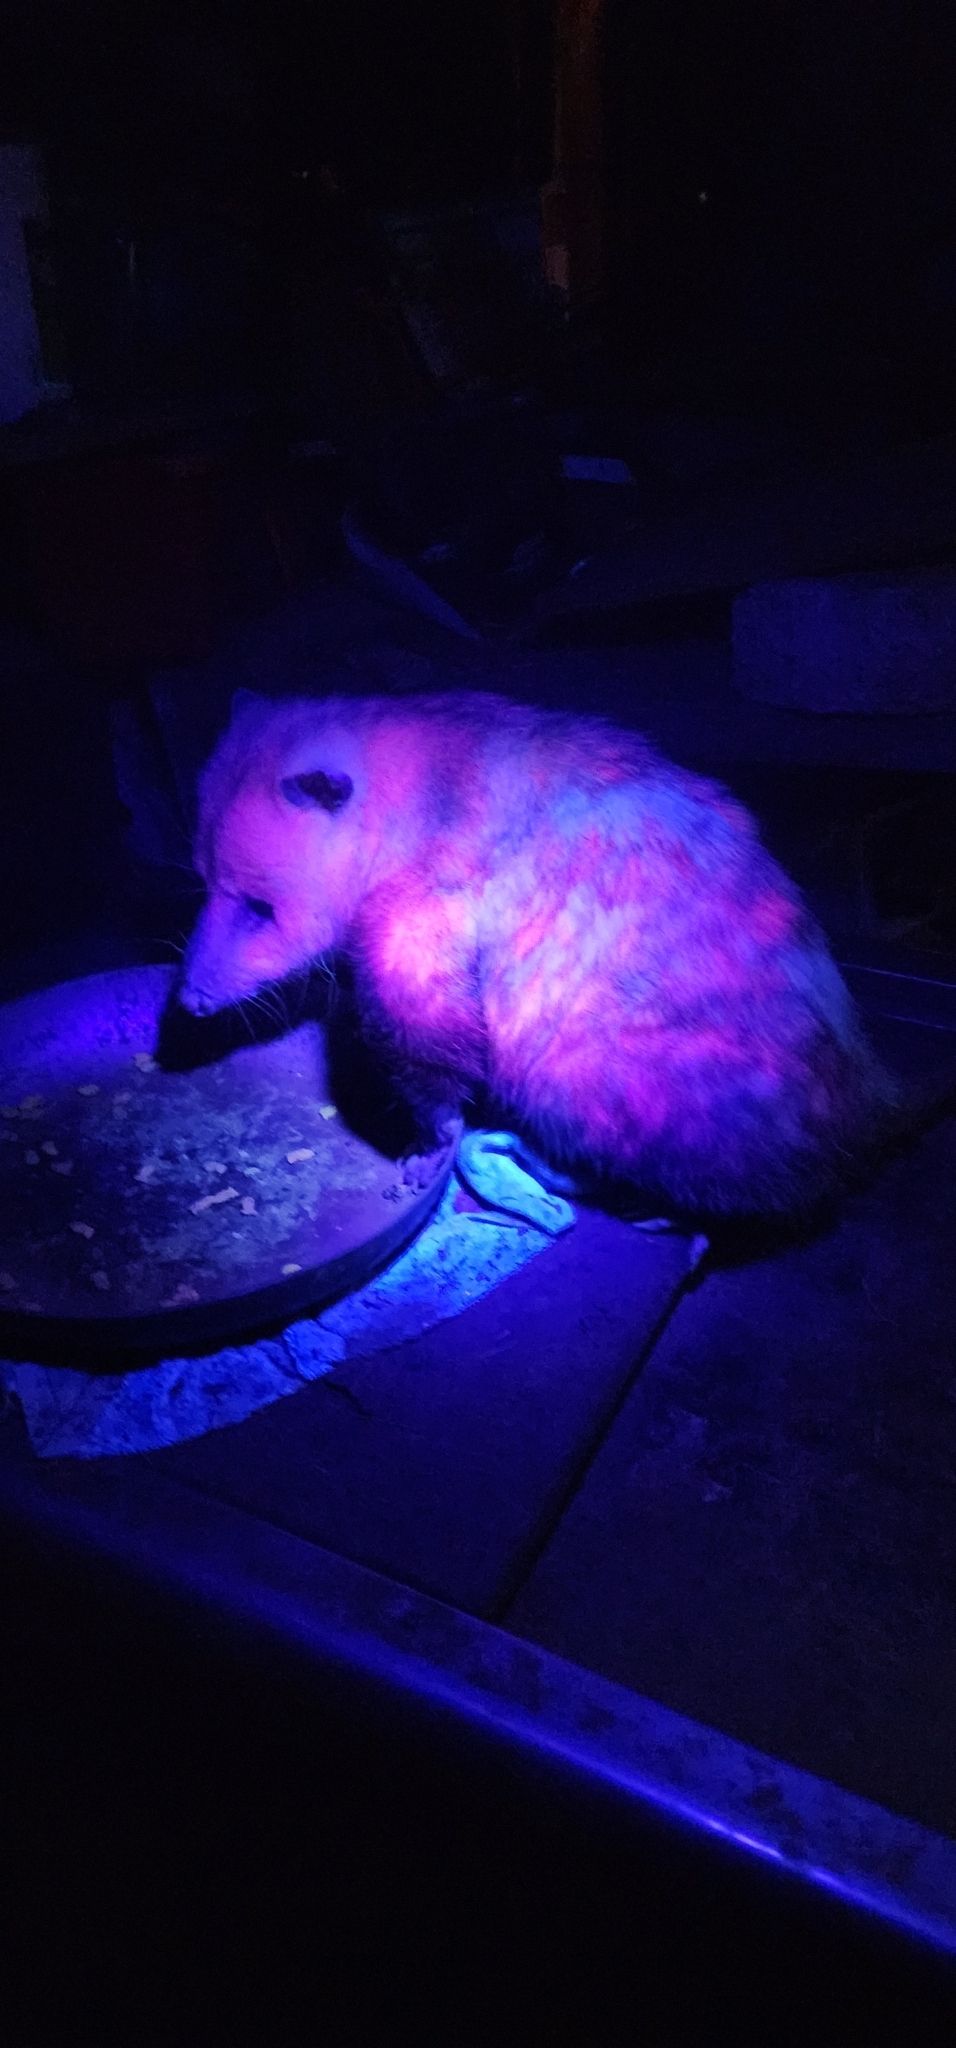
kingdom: Animalia
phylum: Chordata
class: Mammalia
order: Didelphimorphia
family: Didelphidae
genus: Didelphis
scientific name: Didelphis virginiana
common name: Virginia opossum
